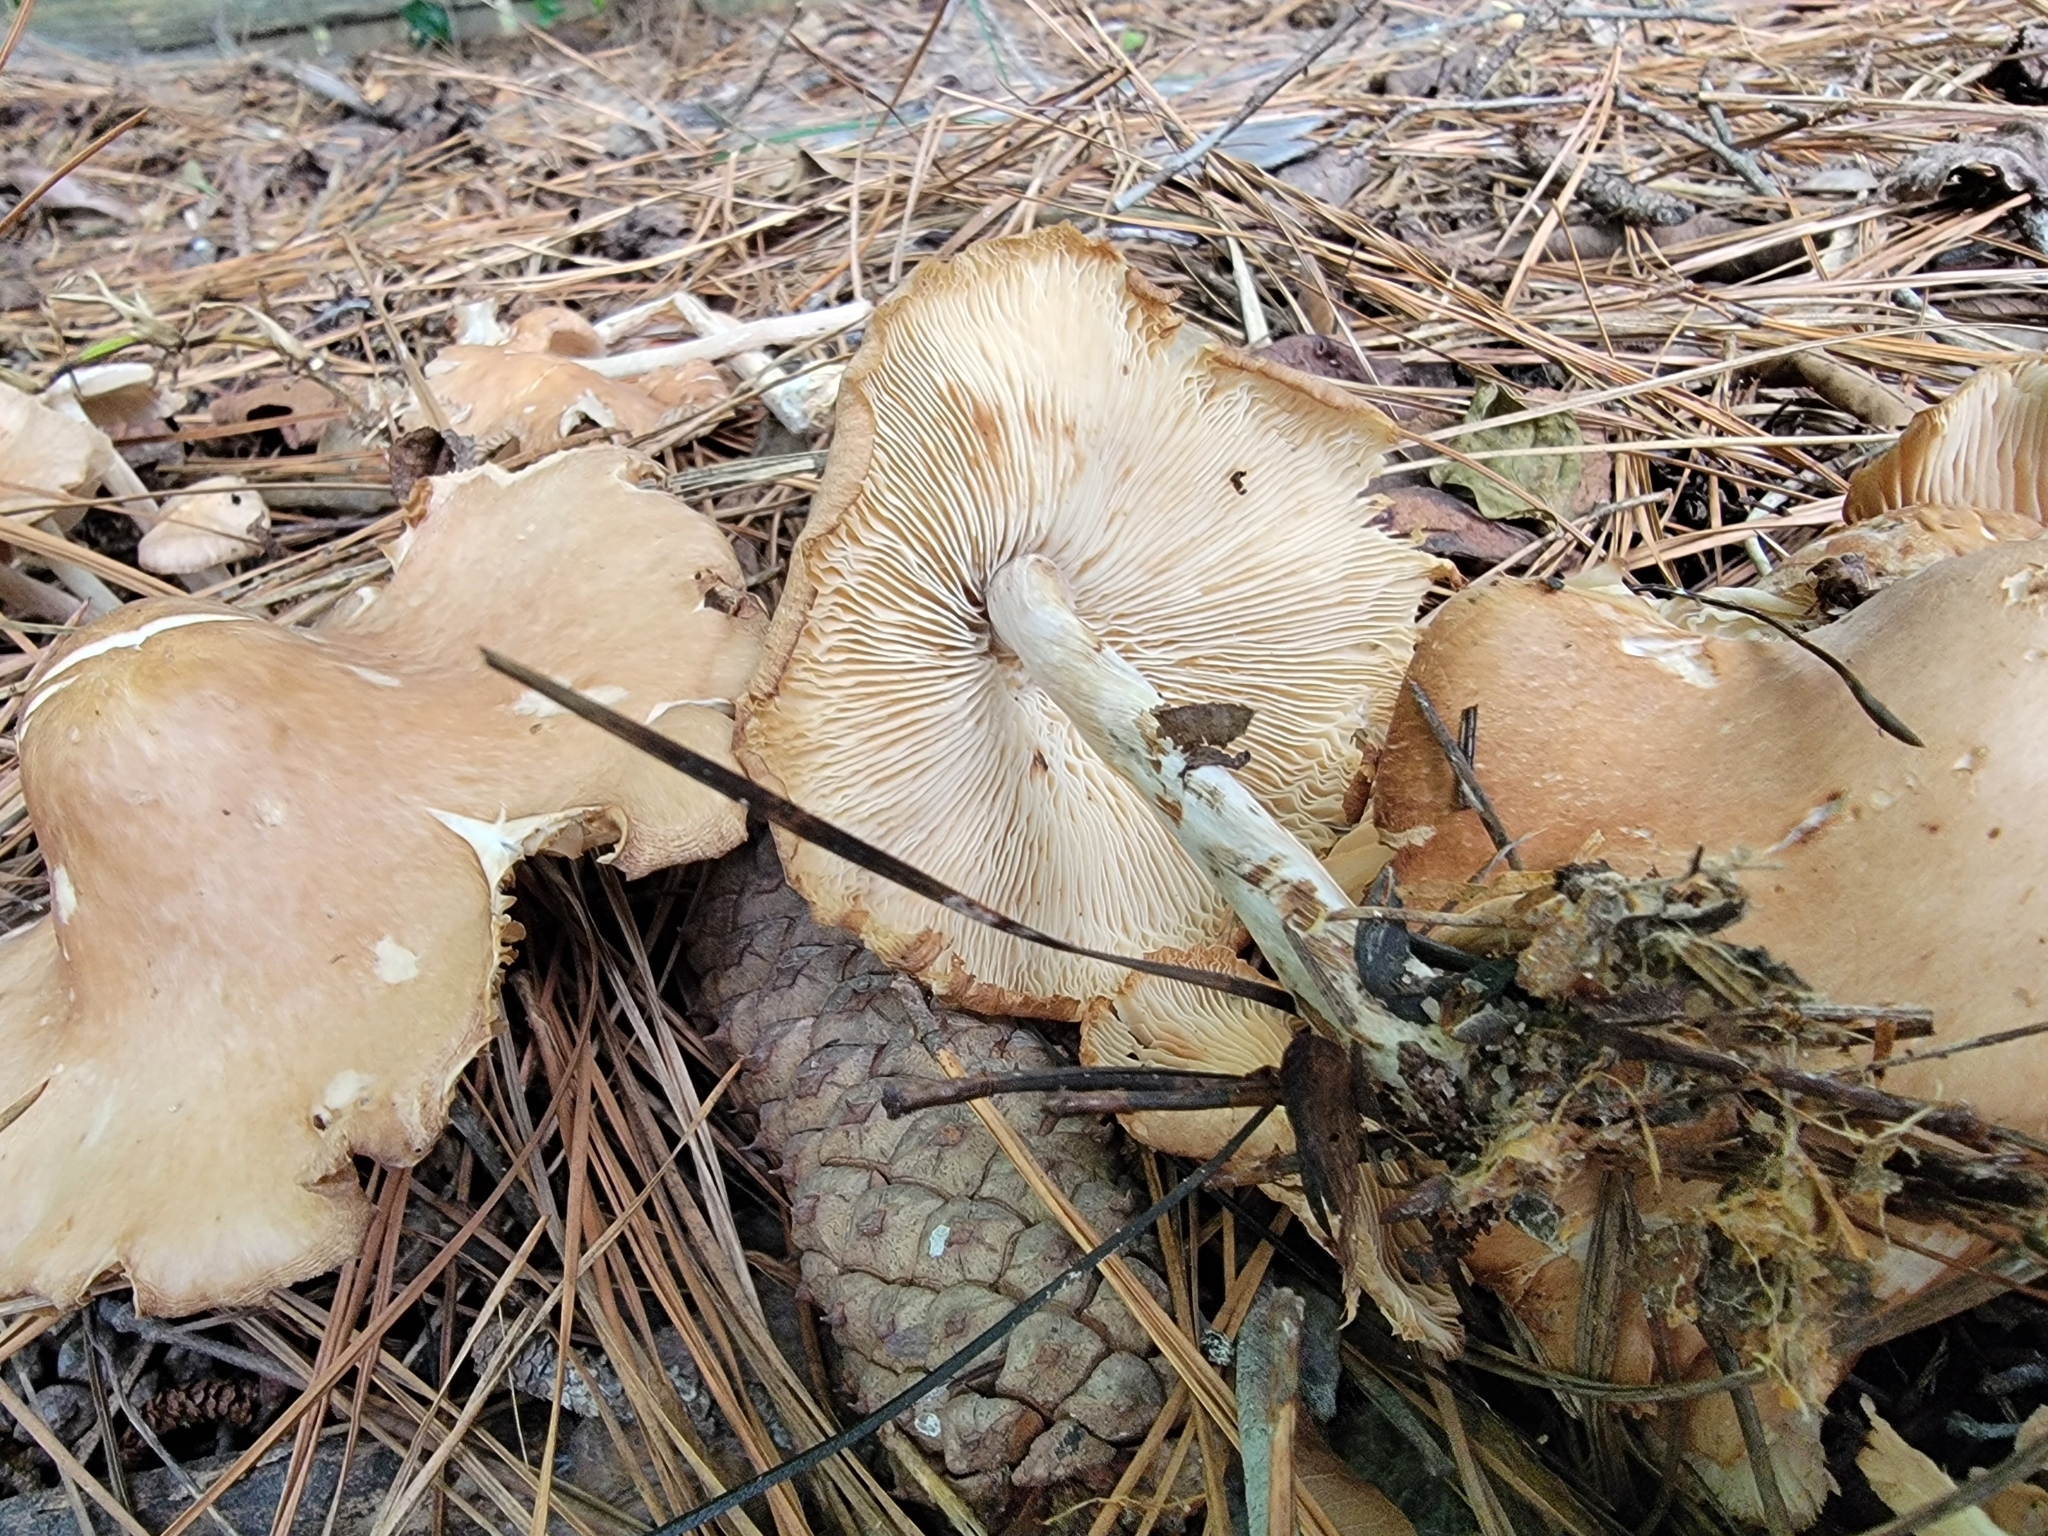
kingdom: Fungi
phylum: Basidiomycota
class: Agaricomycetes
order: Agaricales
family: Omphalotaceae
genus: Collybiopsis
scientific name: Collybiopsis luxurians
